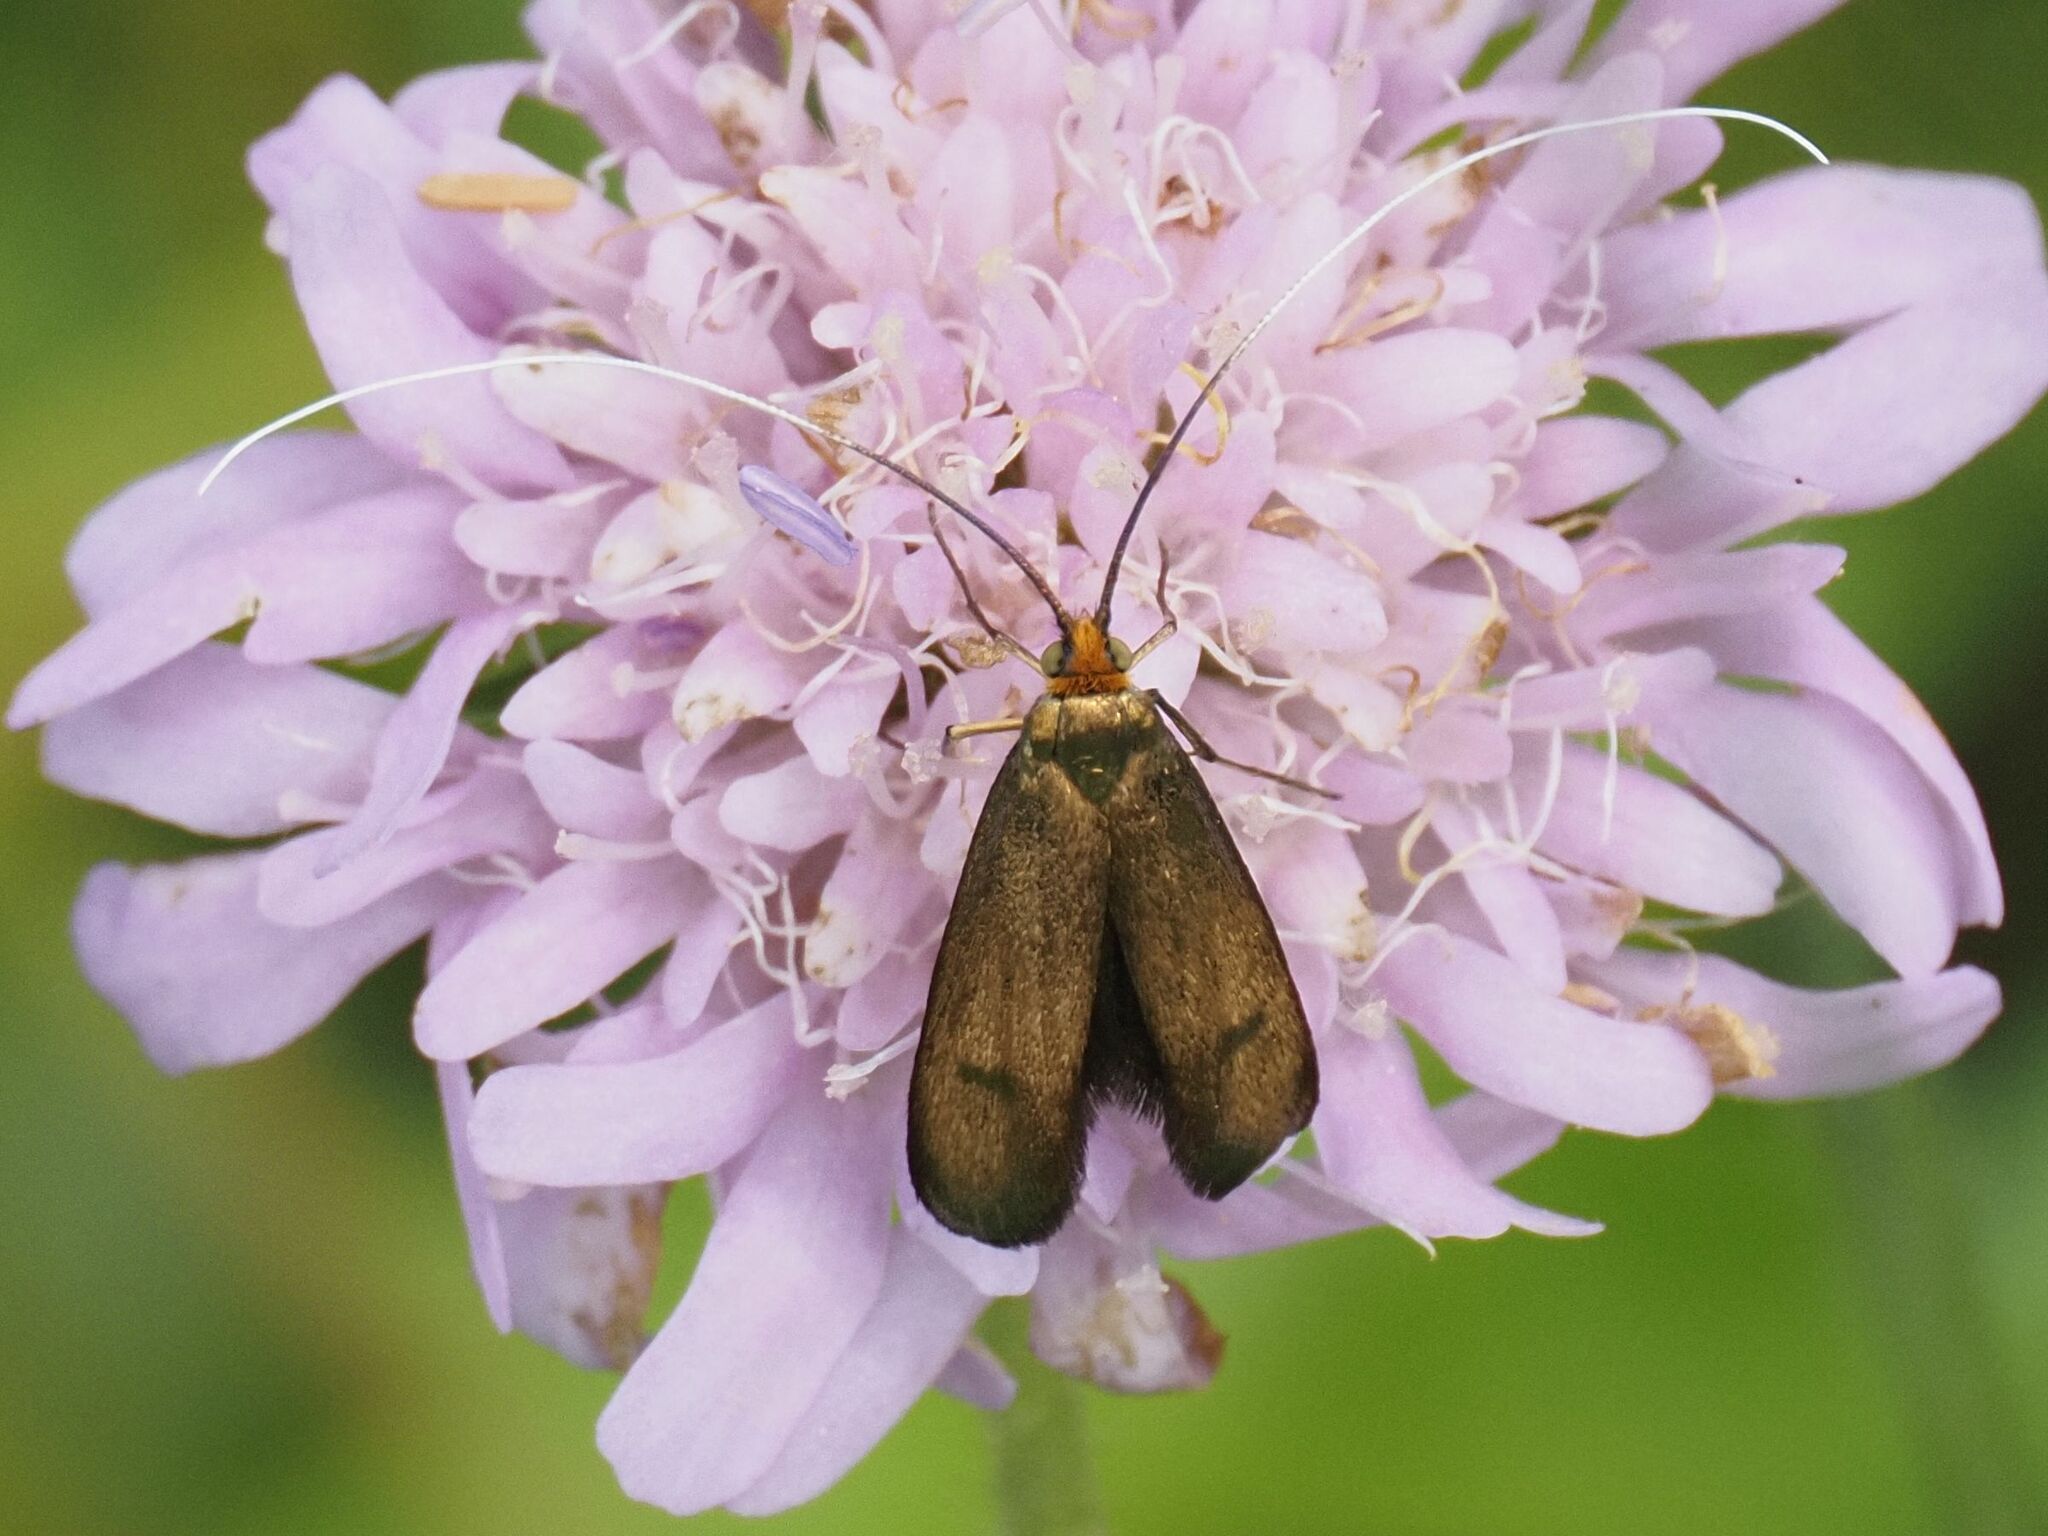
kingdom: Animalia
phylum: Arthropoda
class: Insecta
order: Lepidoptera
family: Adelidae
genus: Nemophora
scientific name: Nemophora metallica
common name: Brassy long-horn
